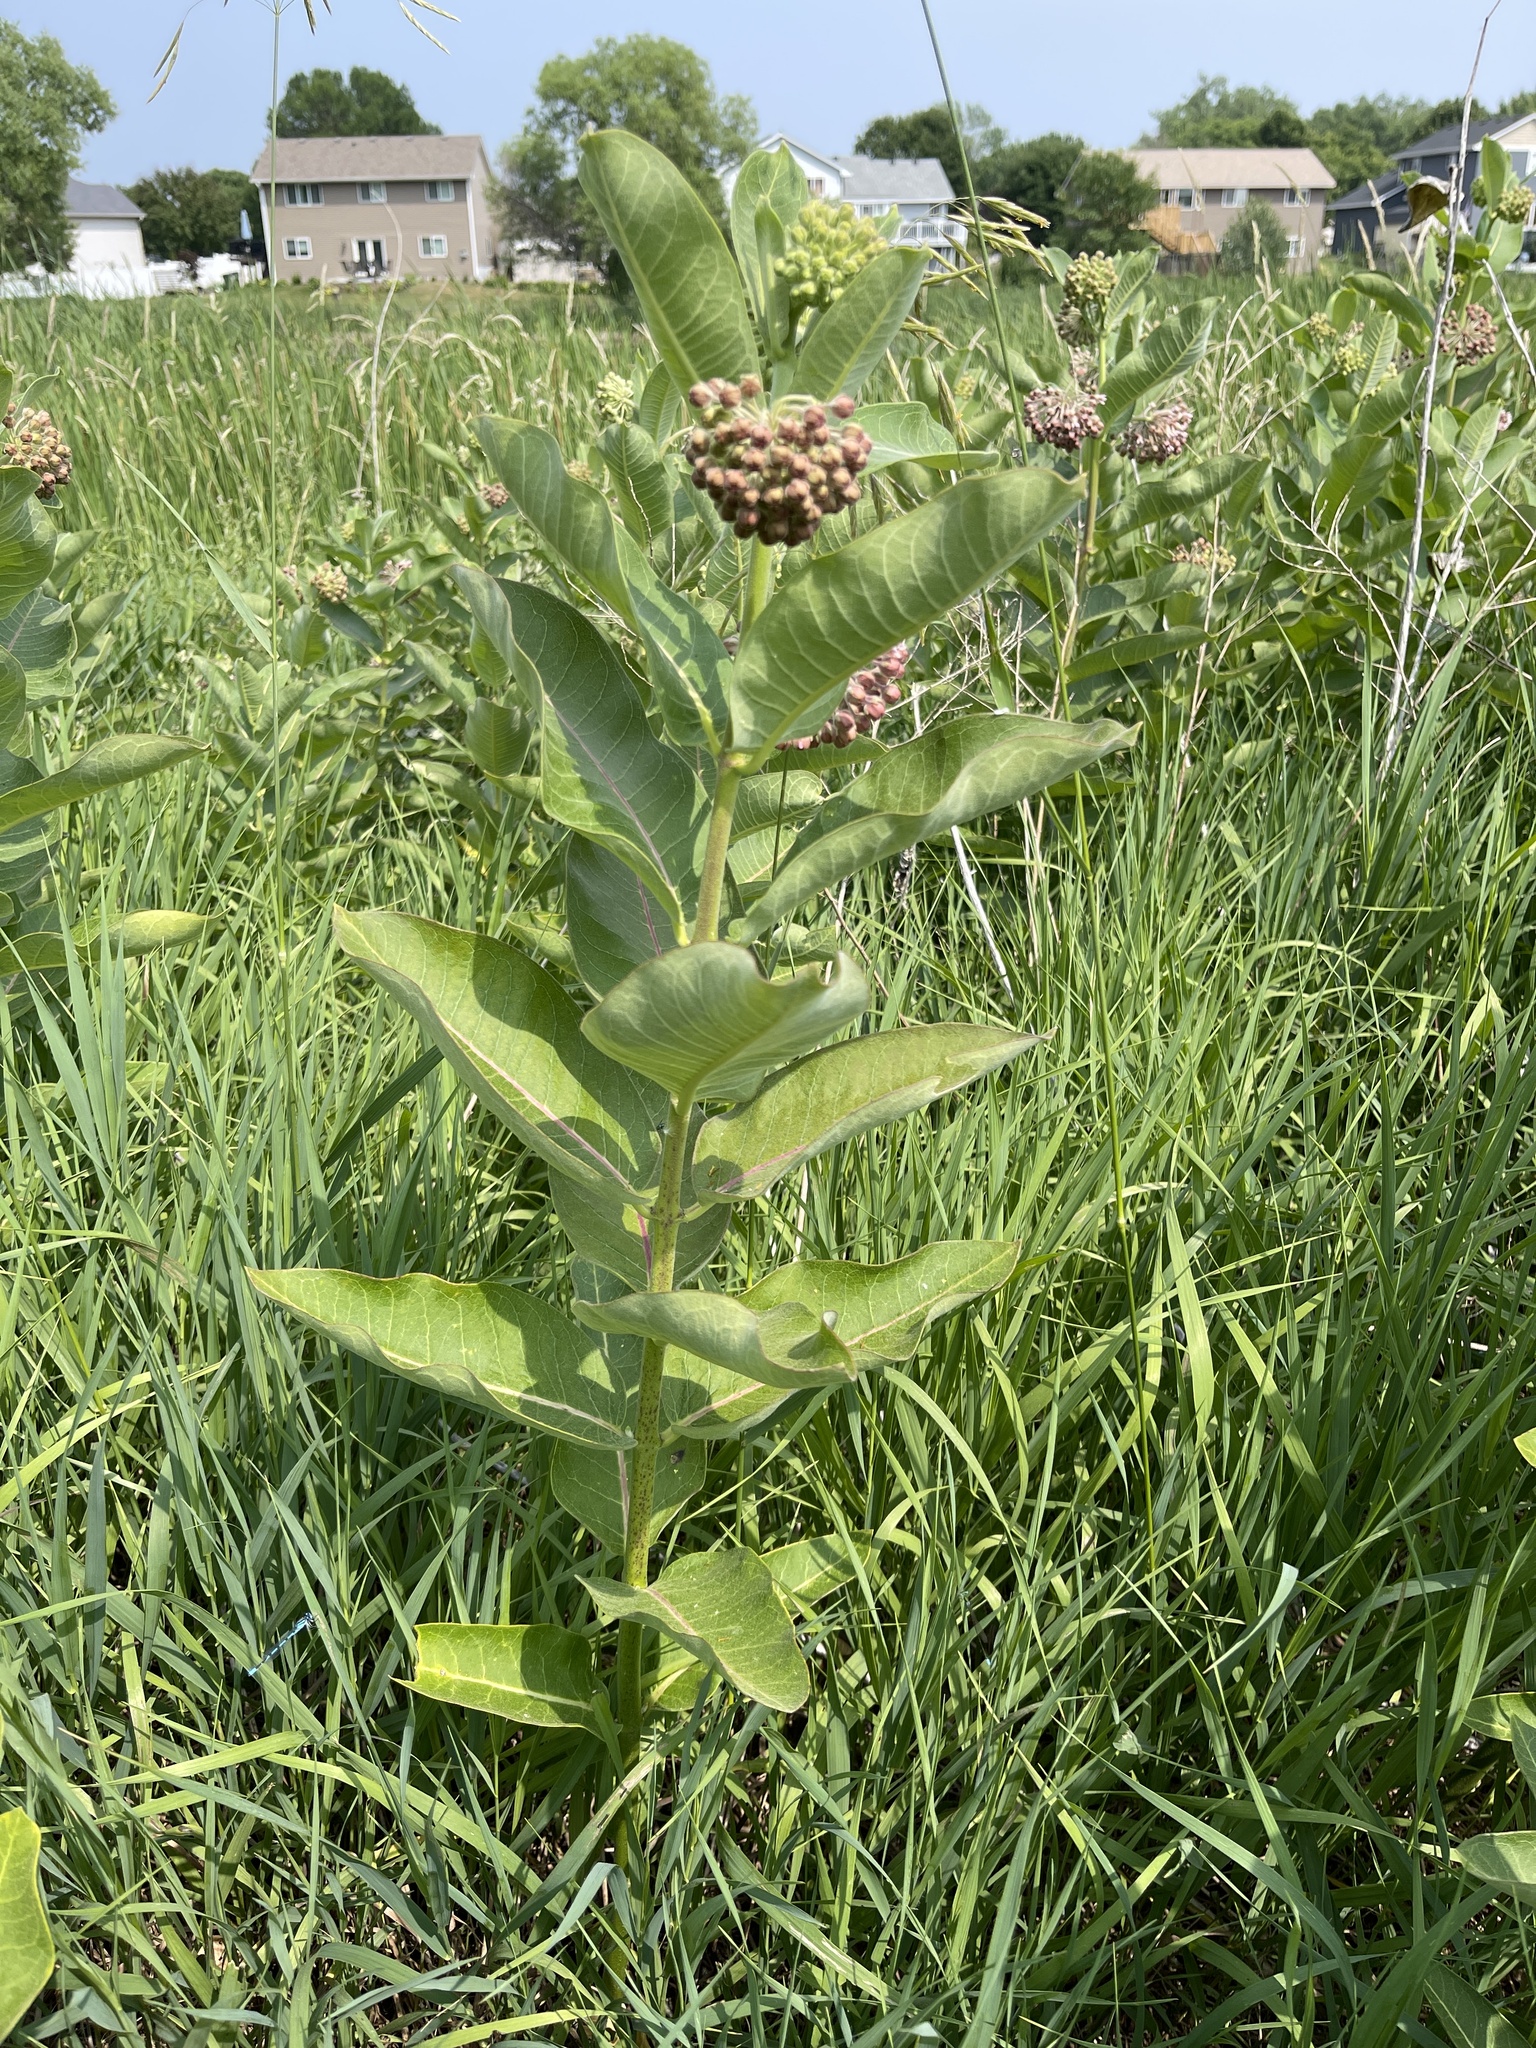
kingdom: Plantae
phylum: Tracheophyta
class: Magnoliopsida
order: Gentianales
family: Apocynaceae
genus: Asclepias
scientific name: Asclepias syriaca
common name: Common milkweed
